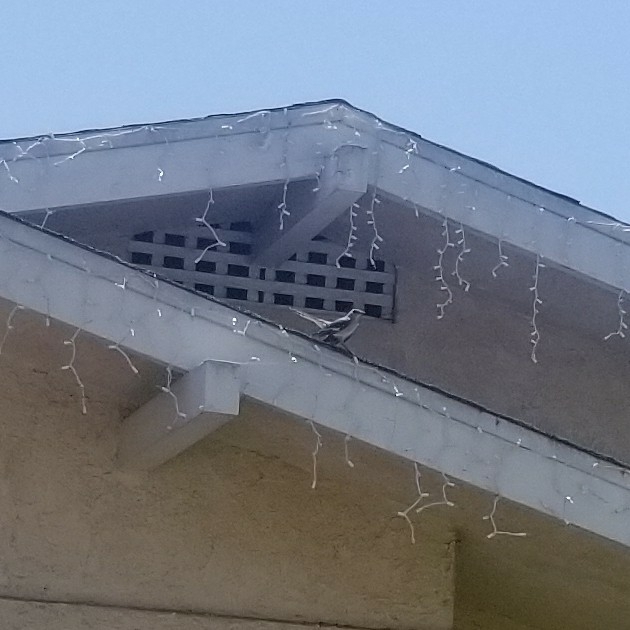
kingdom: Animalia
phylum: Chordata
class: Aves
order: Passeriformes
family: Mimidae
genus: Mimus
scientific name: Mimus polyglottos
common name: Northern mockingbird
